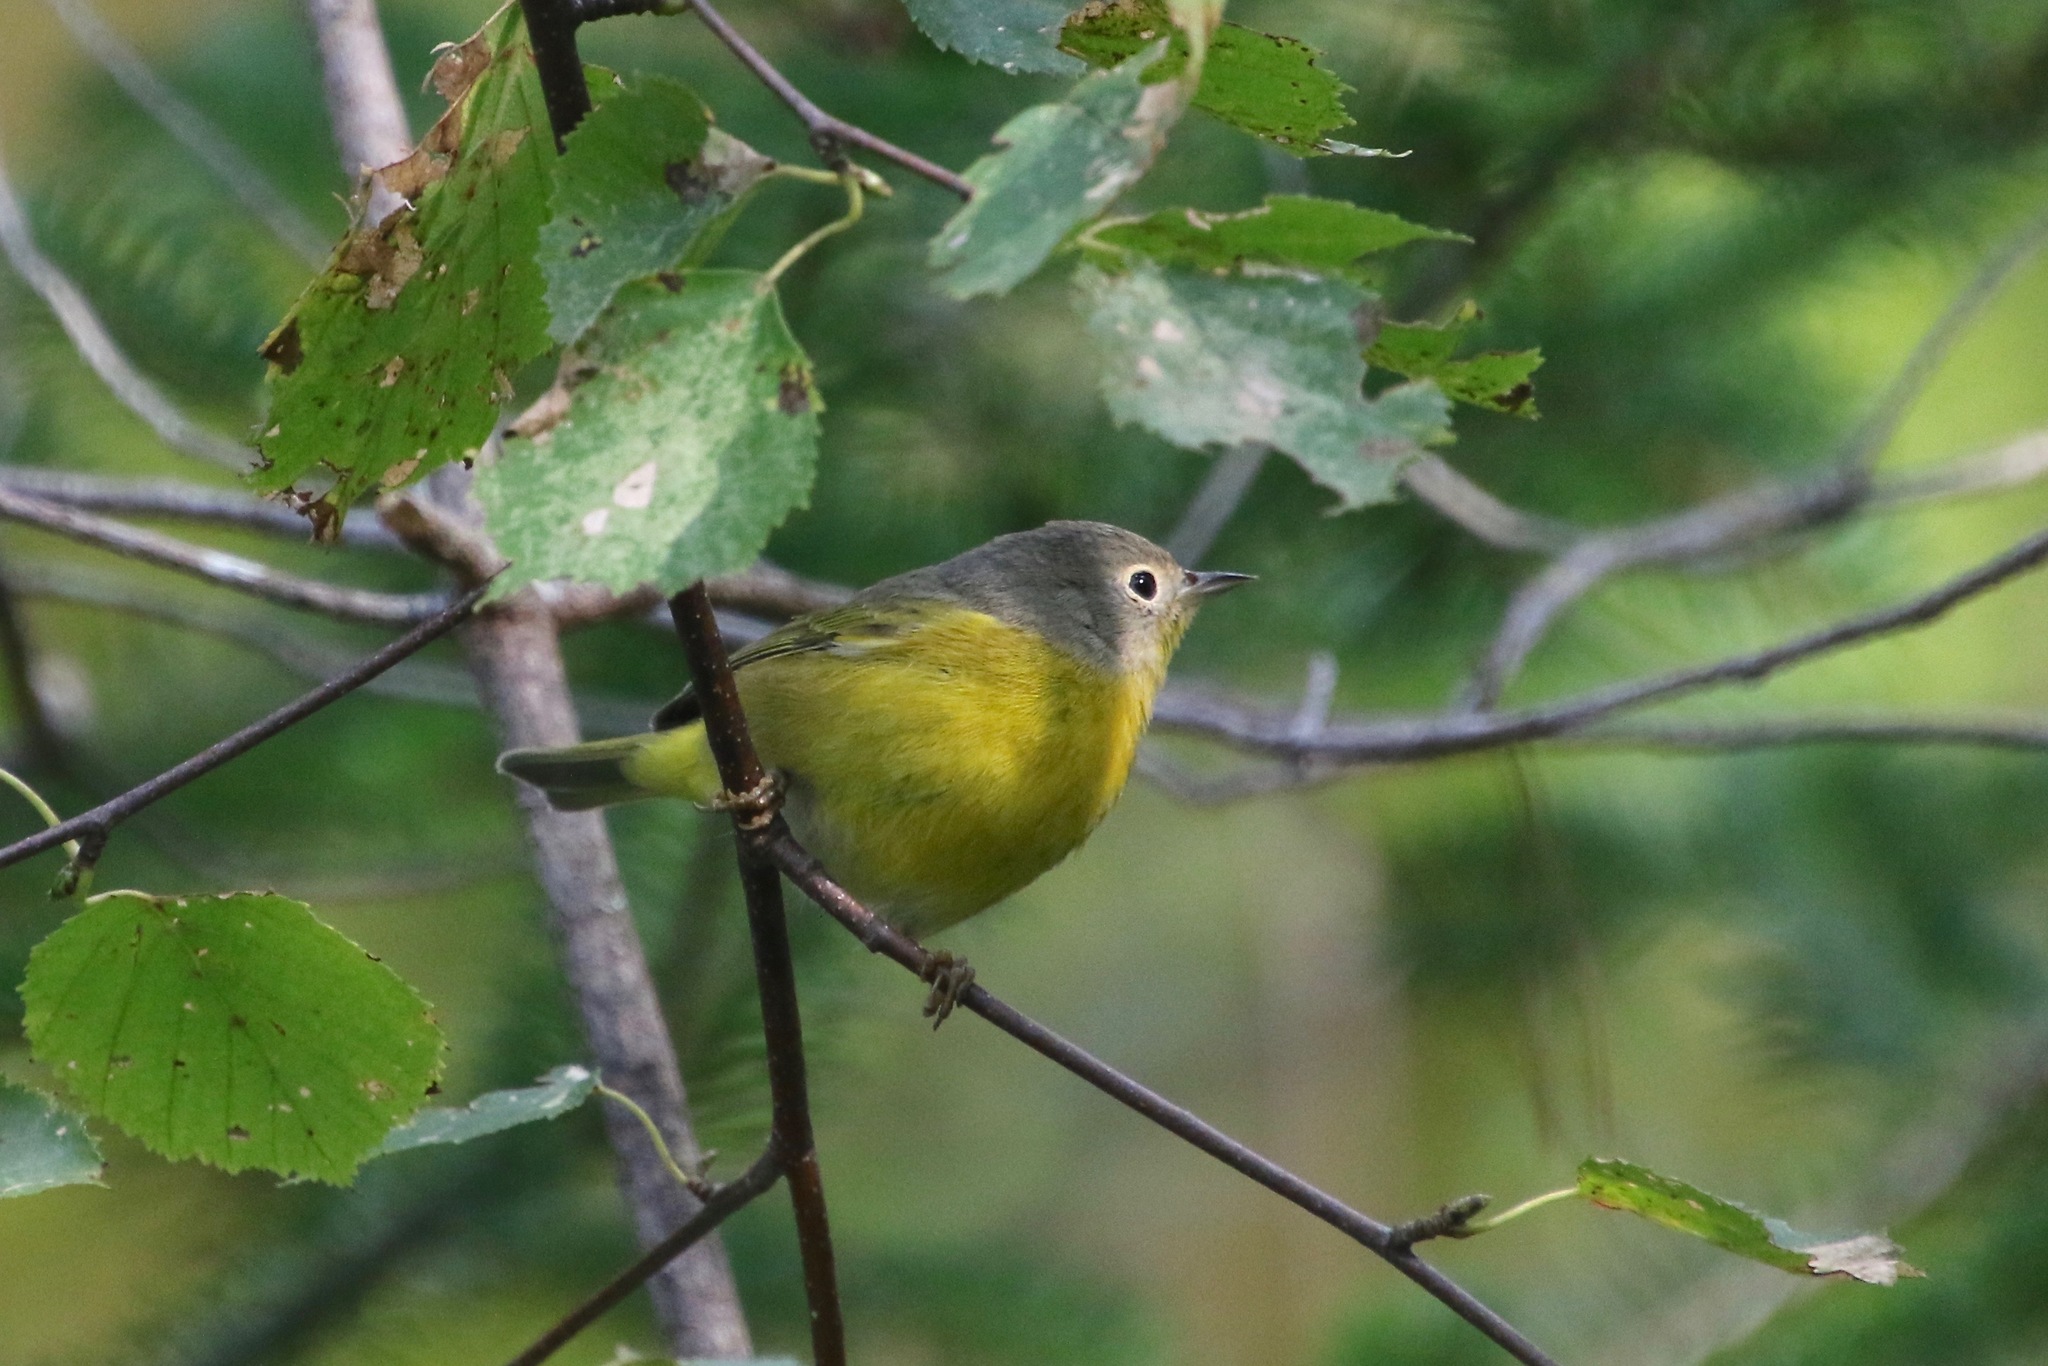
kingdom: Animalia
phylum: Chordata
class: Aves
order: Passeriformes
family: Parulidae
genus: Leiothlypis
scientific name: Leiothlypis ruficapilla
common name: Nashville warbler
